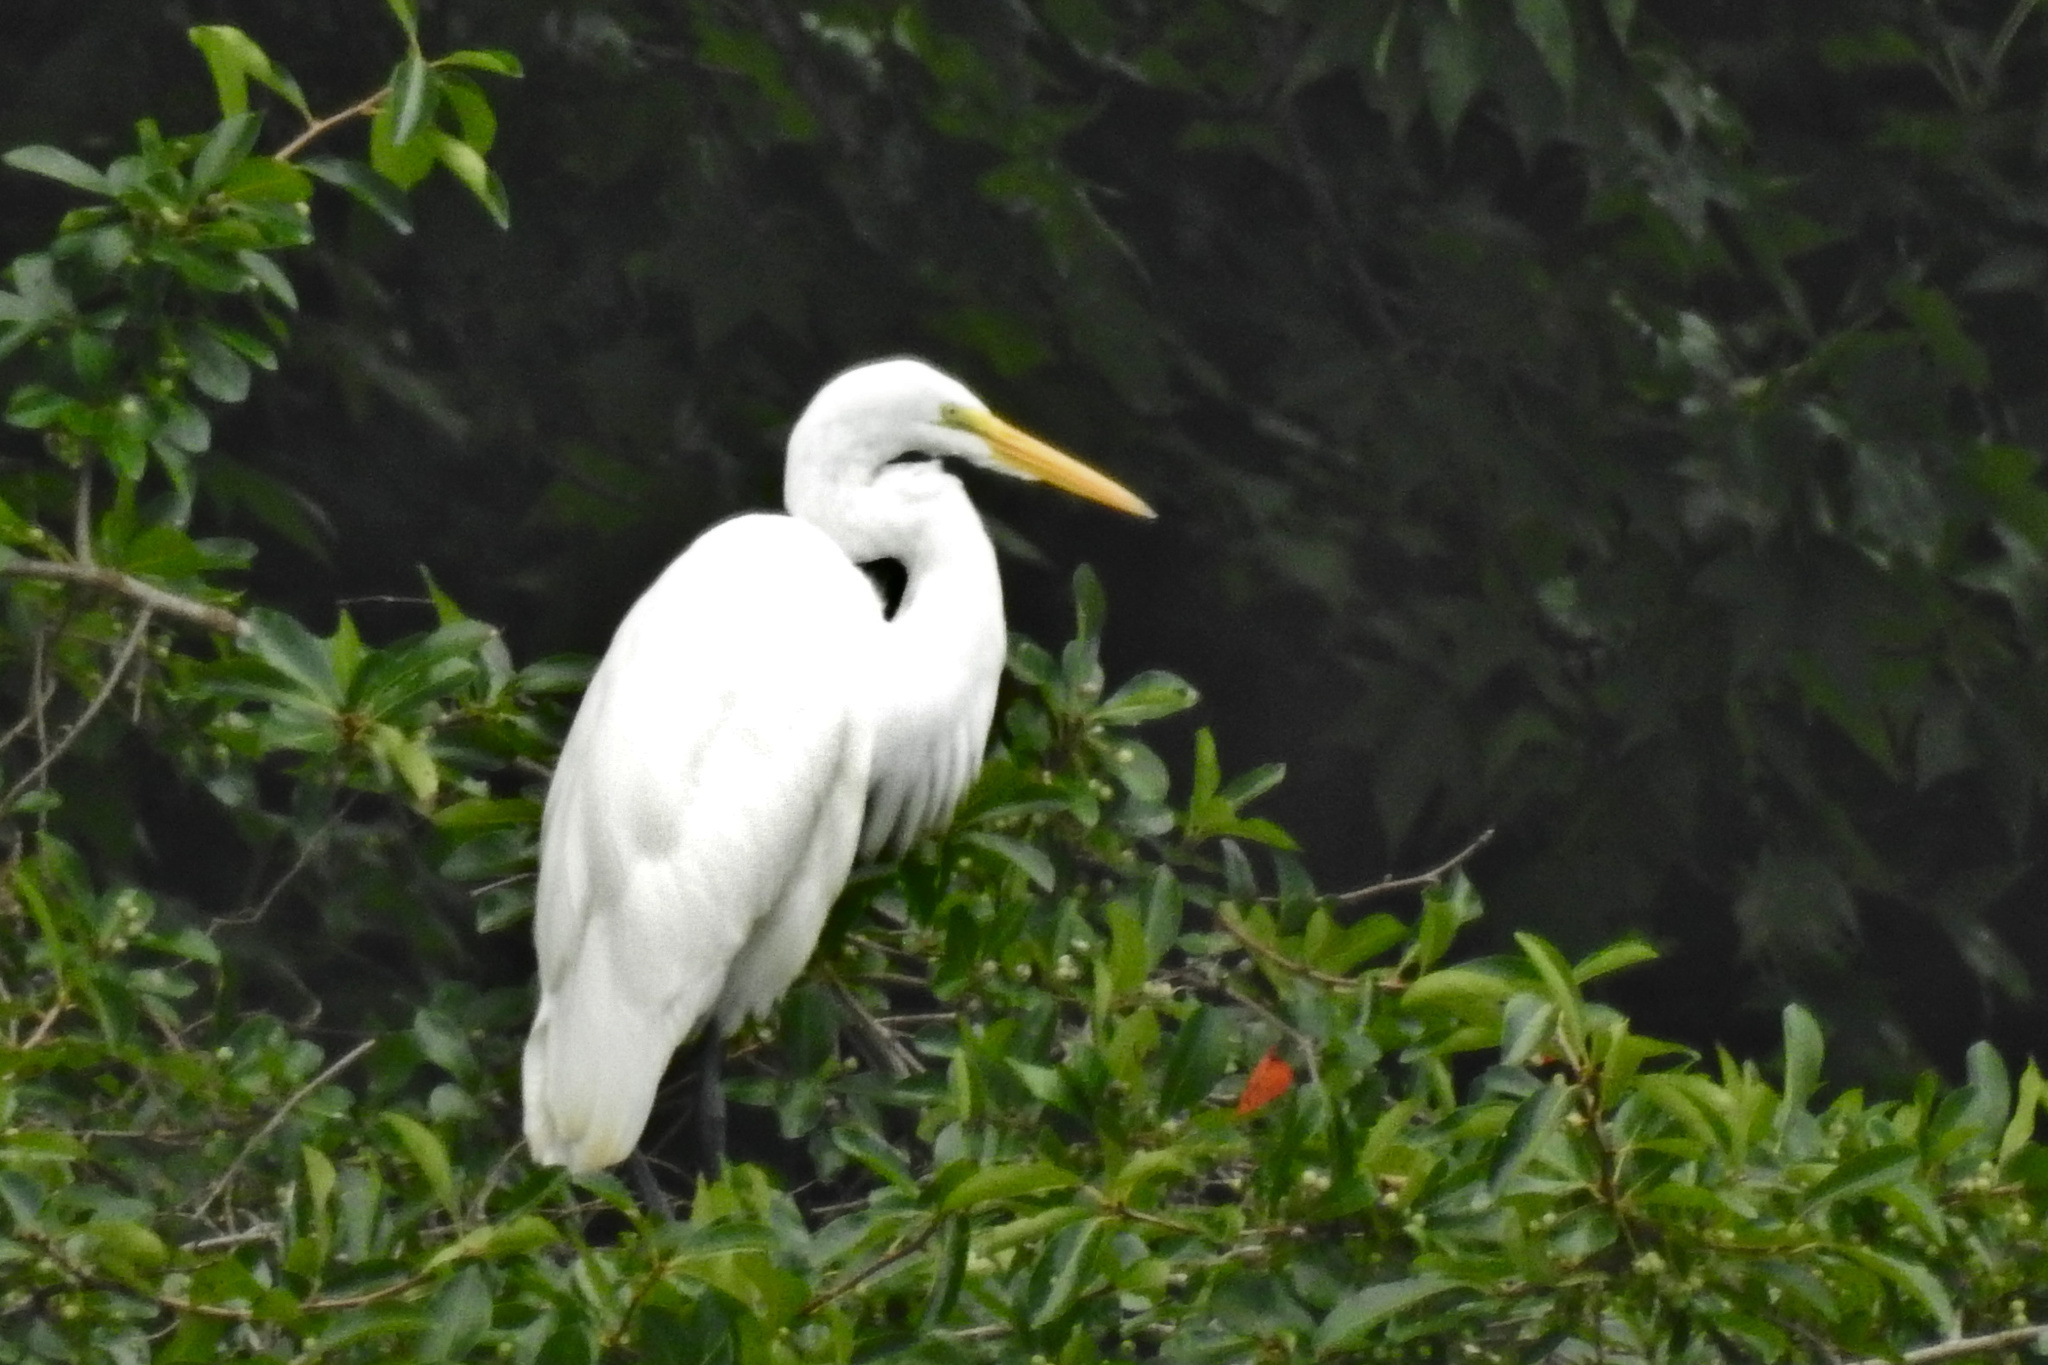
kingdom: Animalia
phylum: Chordata
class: Aves
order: Pelecaniformes
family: Ardeidae
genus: Ardea
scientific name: Ardea alba
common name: Great egret
